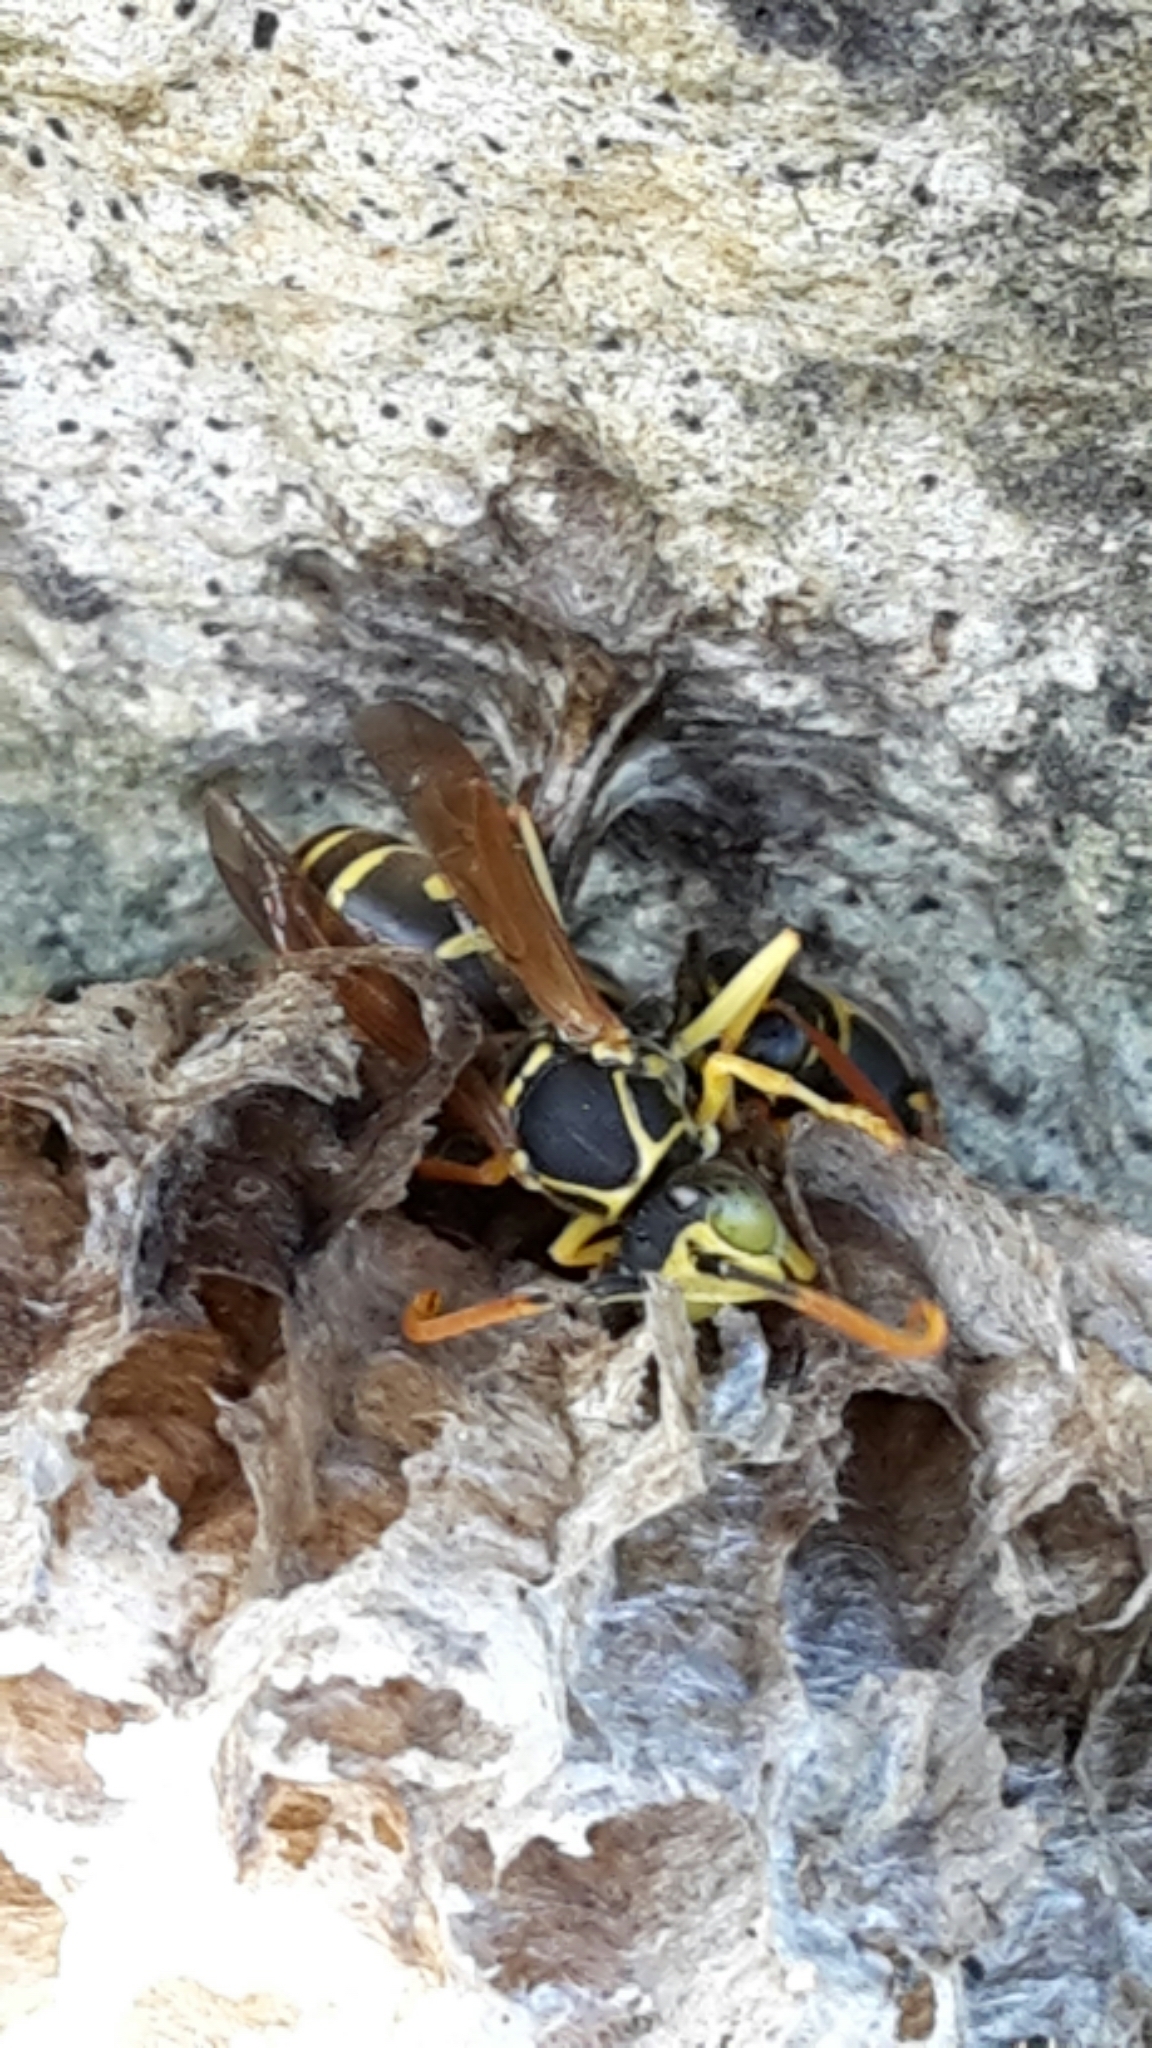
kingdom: Animalia
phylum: Arthropoda
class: Insecta
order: Hymenoptera
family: Eumenidae
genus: Polistes
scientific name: Polistes chinensis
